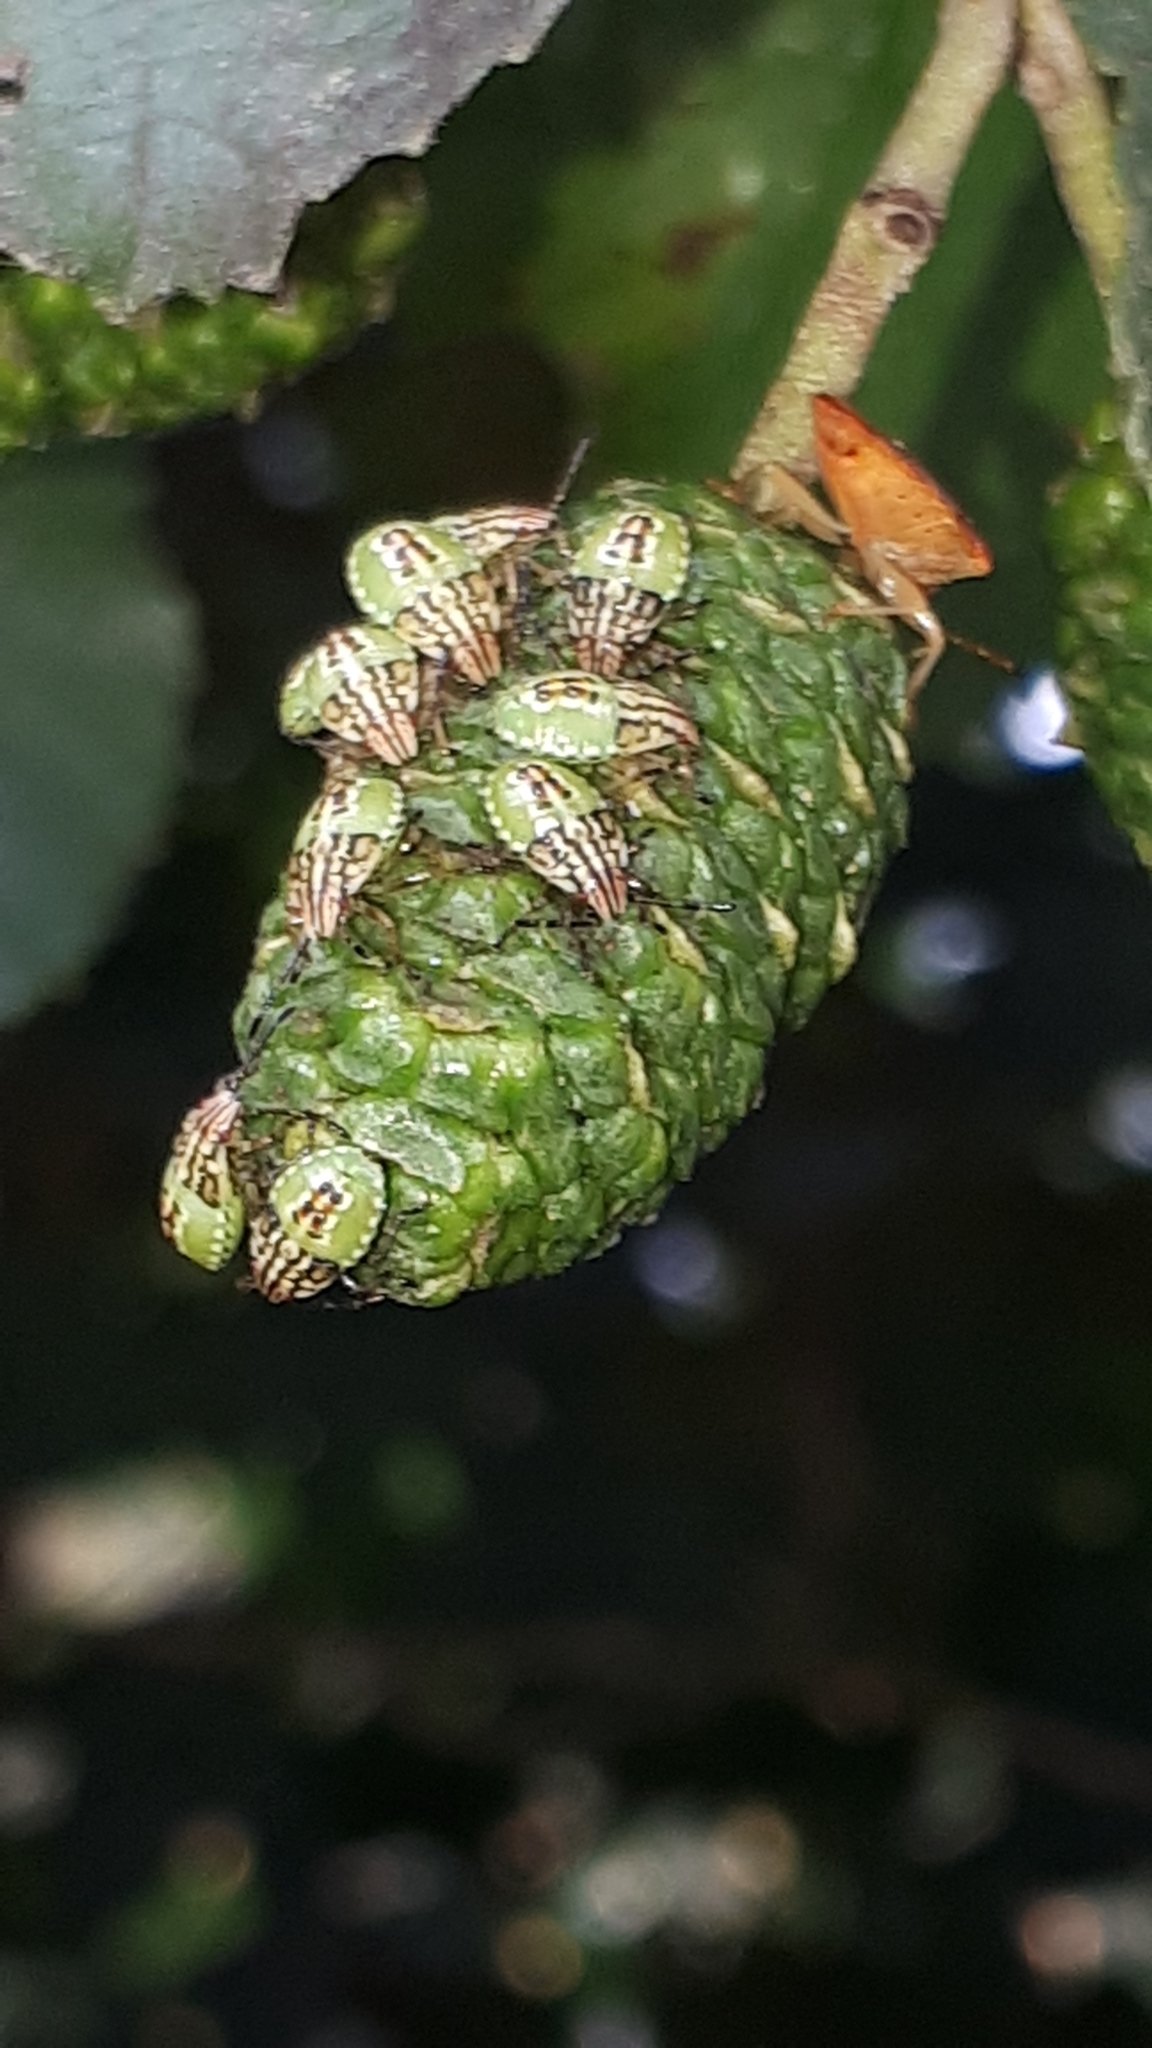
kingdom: Animalia
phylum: Arthropoda
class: Insecta
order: Hemiptera
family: Acanthosomatidae
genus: Elasmucha
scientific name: Elasmucha grisea
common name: Parent bug
